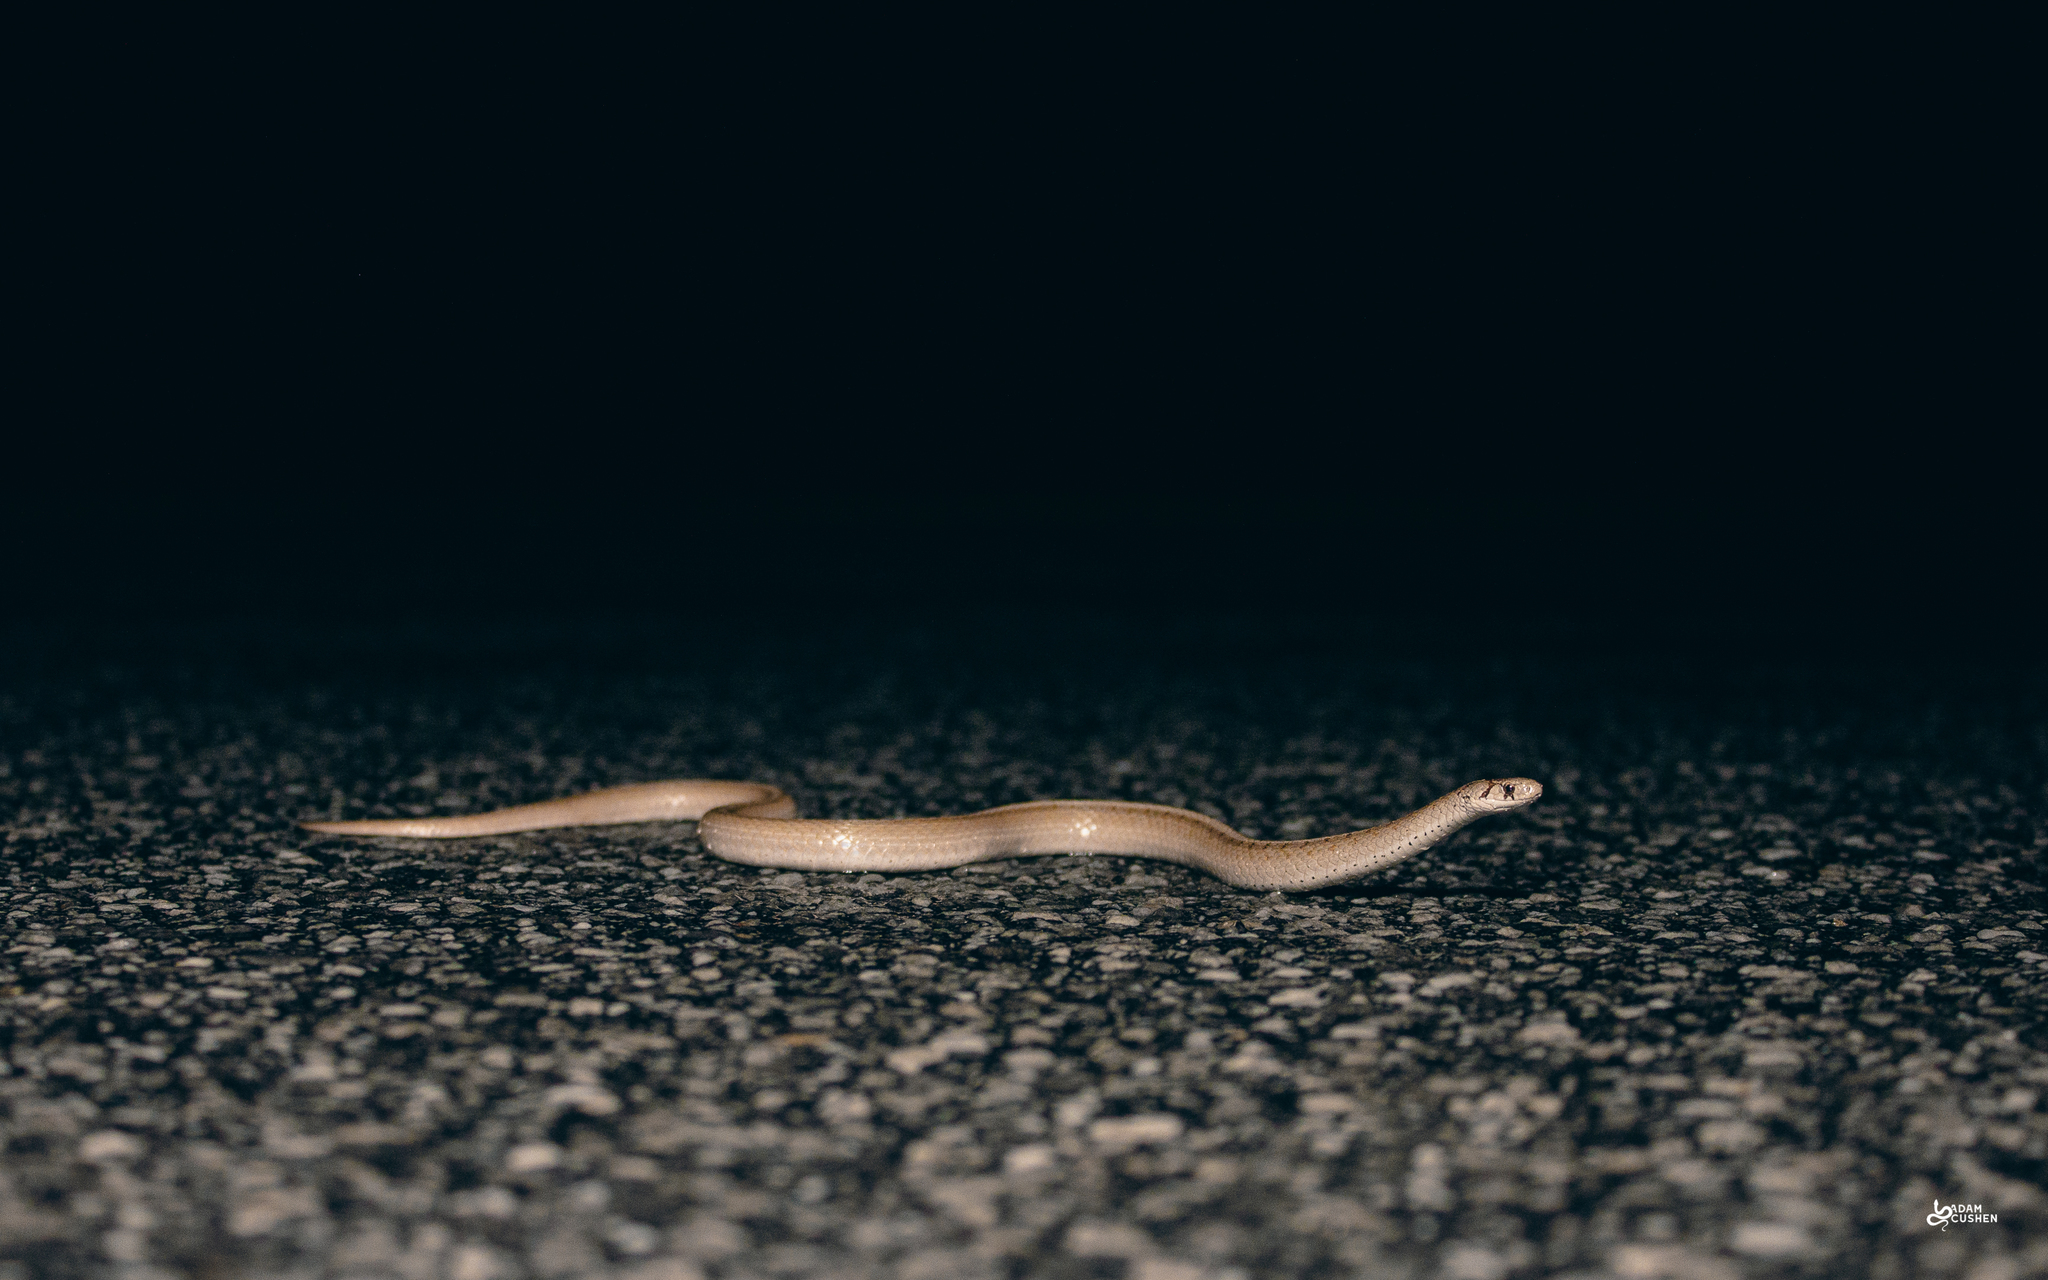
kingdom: Animalia
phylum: Chordata
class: Squamata
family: Colubridae
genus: Storeria
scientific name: Storeria dekayi
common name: (dekay’s) brown snake
